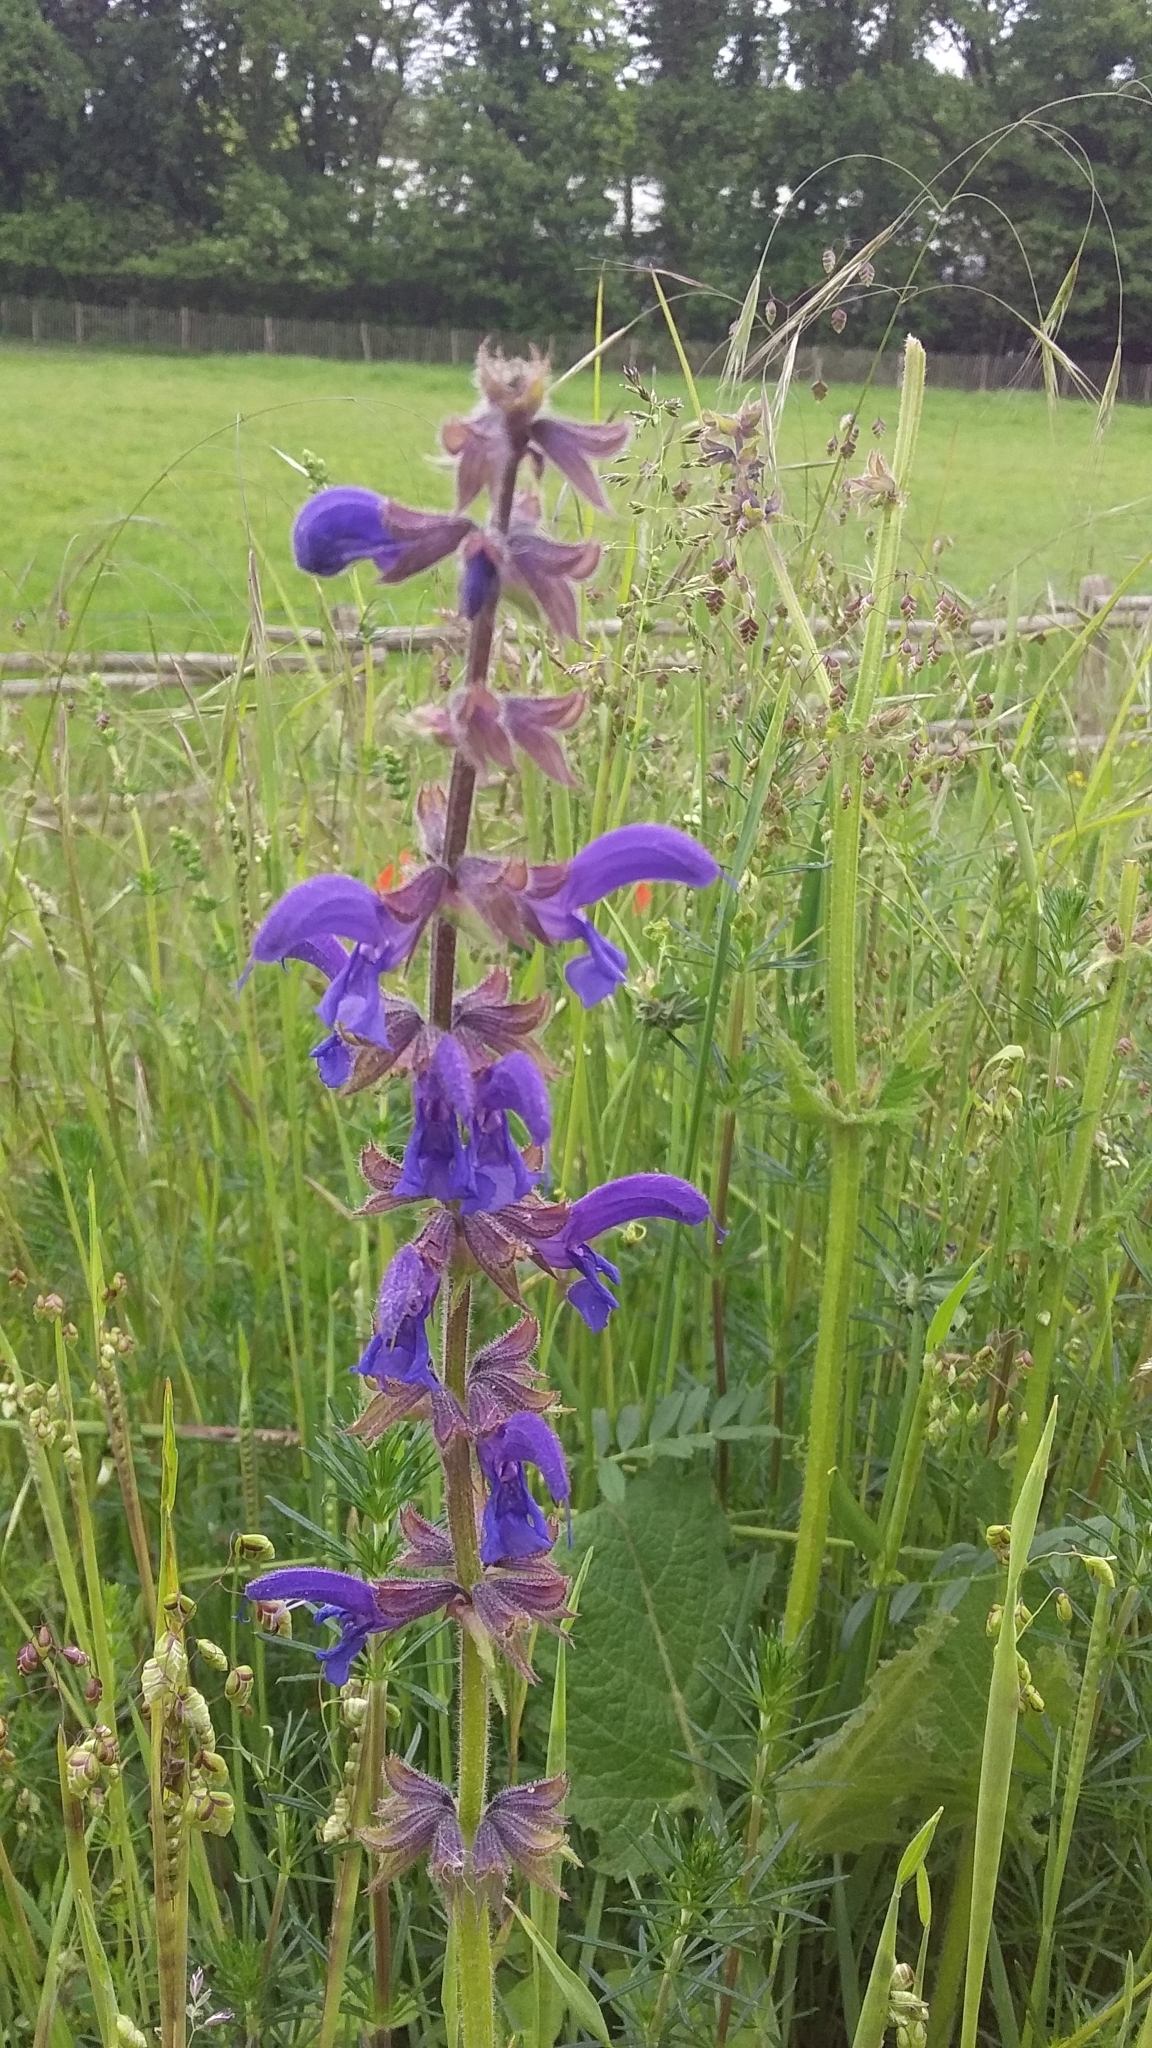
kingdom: Plantae
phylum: Tracheophyta
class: Magnoliopsida
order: Lamiales
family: Lamiaceae
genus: Salvia
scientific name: Salvia pratensis
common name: Meadow sage
